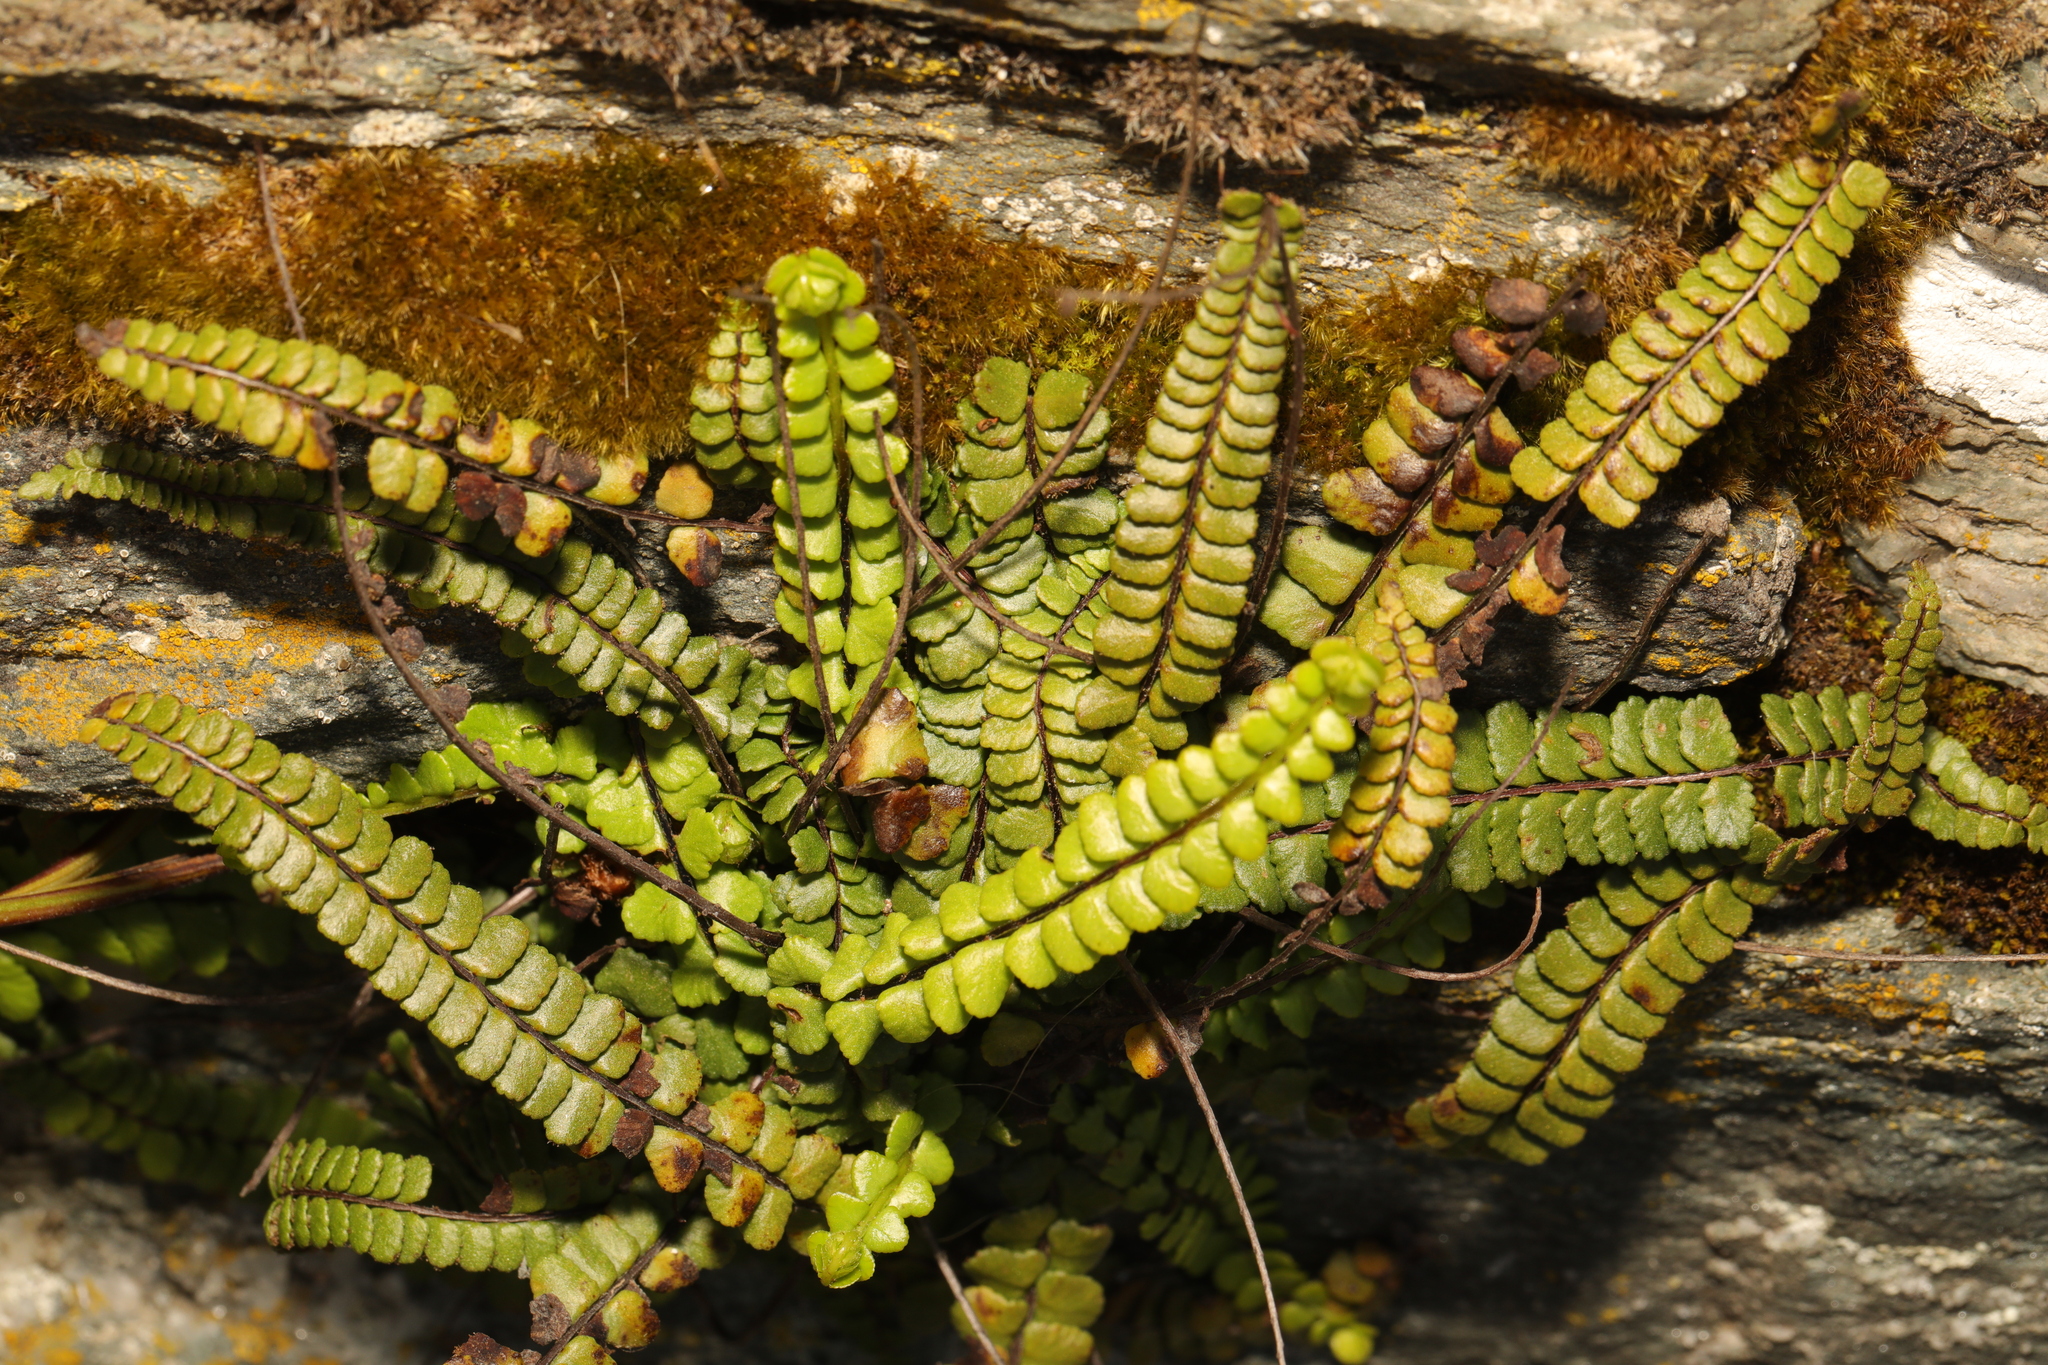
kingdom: Plantae
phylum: Tracheophyta
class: Polypodiopsida
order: Polypodiales
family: Aspleniaceae
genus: Asplenium
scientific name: Asplenium trichomanes
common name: Maidenhair spleenwort
